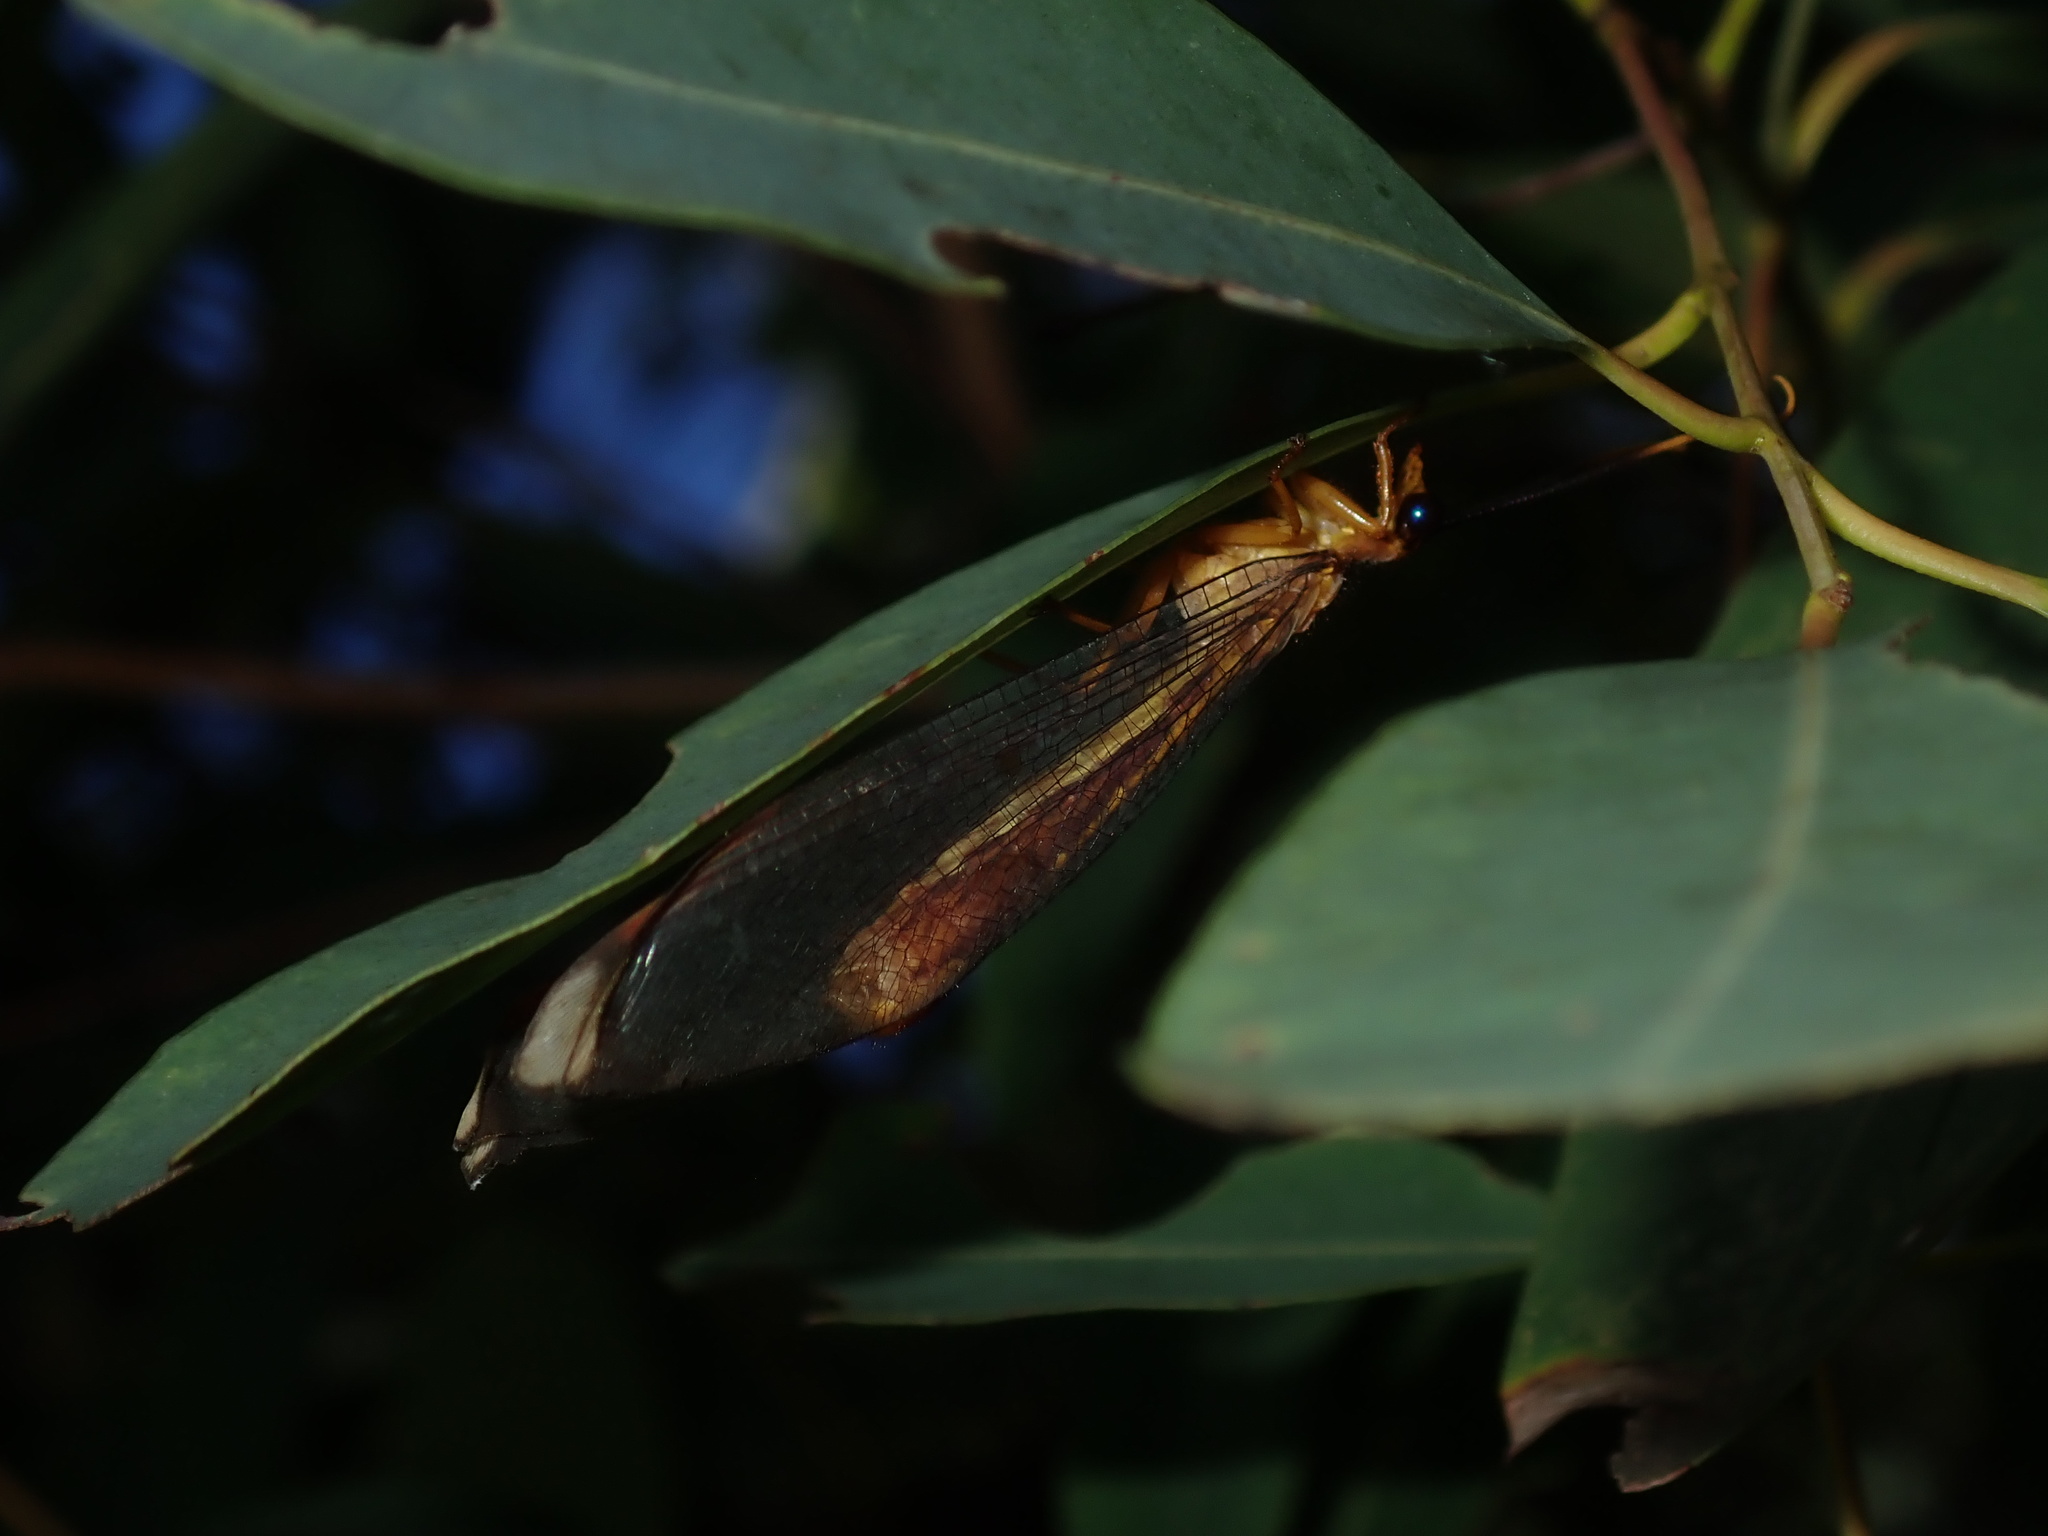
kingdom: Animalia
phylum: Arthropoda
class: Insecta
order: Neuroptera
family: Nymphidae
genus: Nymphes
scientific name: Nymphes myrmeleonoides
